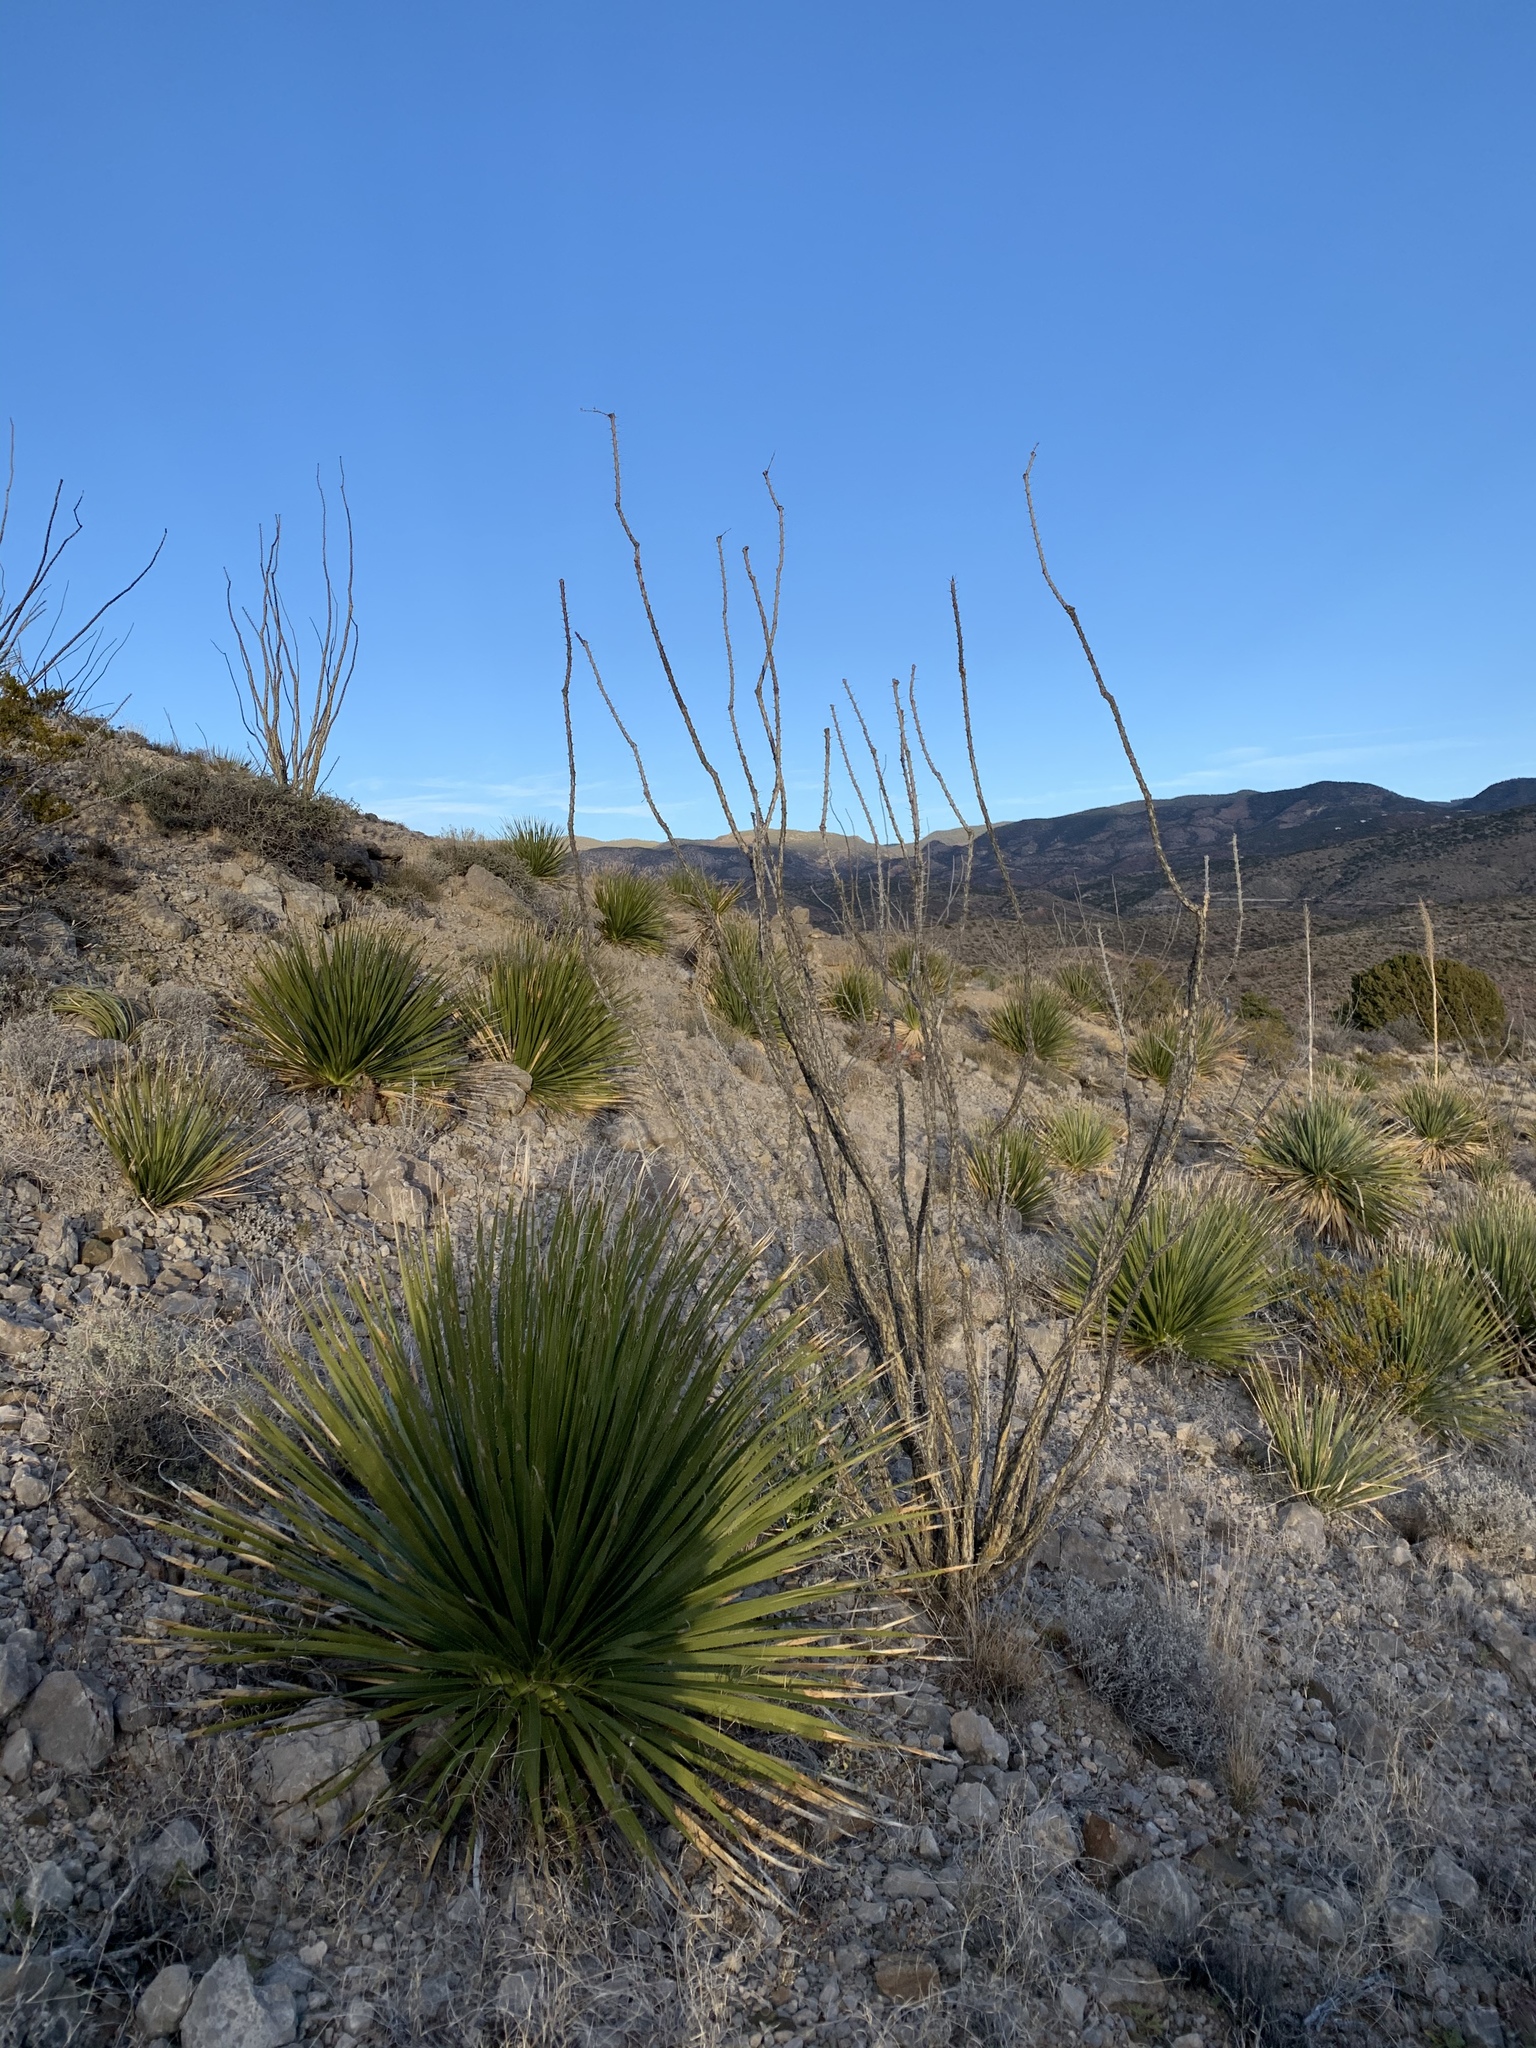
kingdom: Plantae
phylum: Tracheophyta
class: Magnoliopsida
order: Ericales
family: Fouquieriaceae
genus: Fouquieria
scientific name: Fouquieria splendens
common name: Vine-cactus
